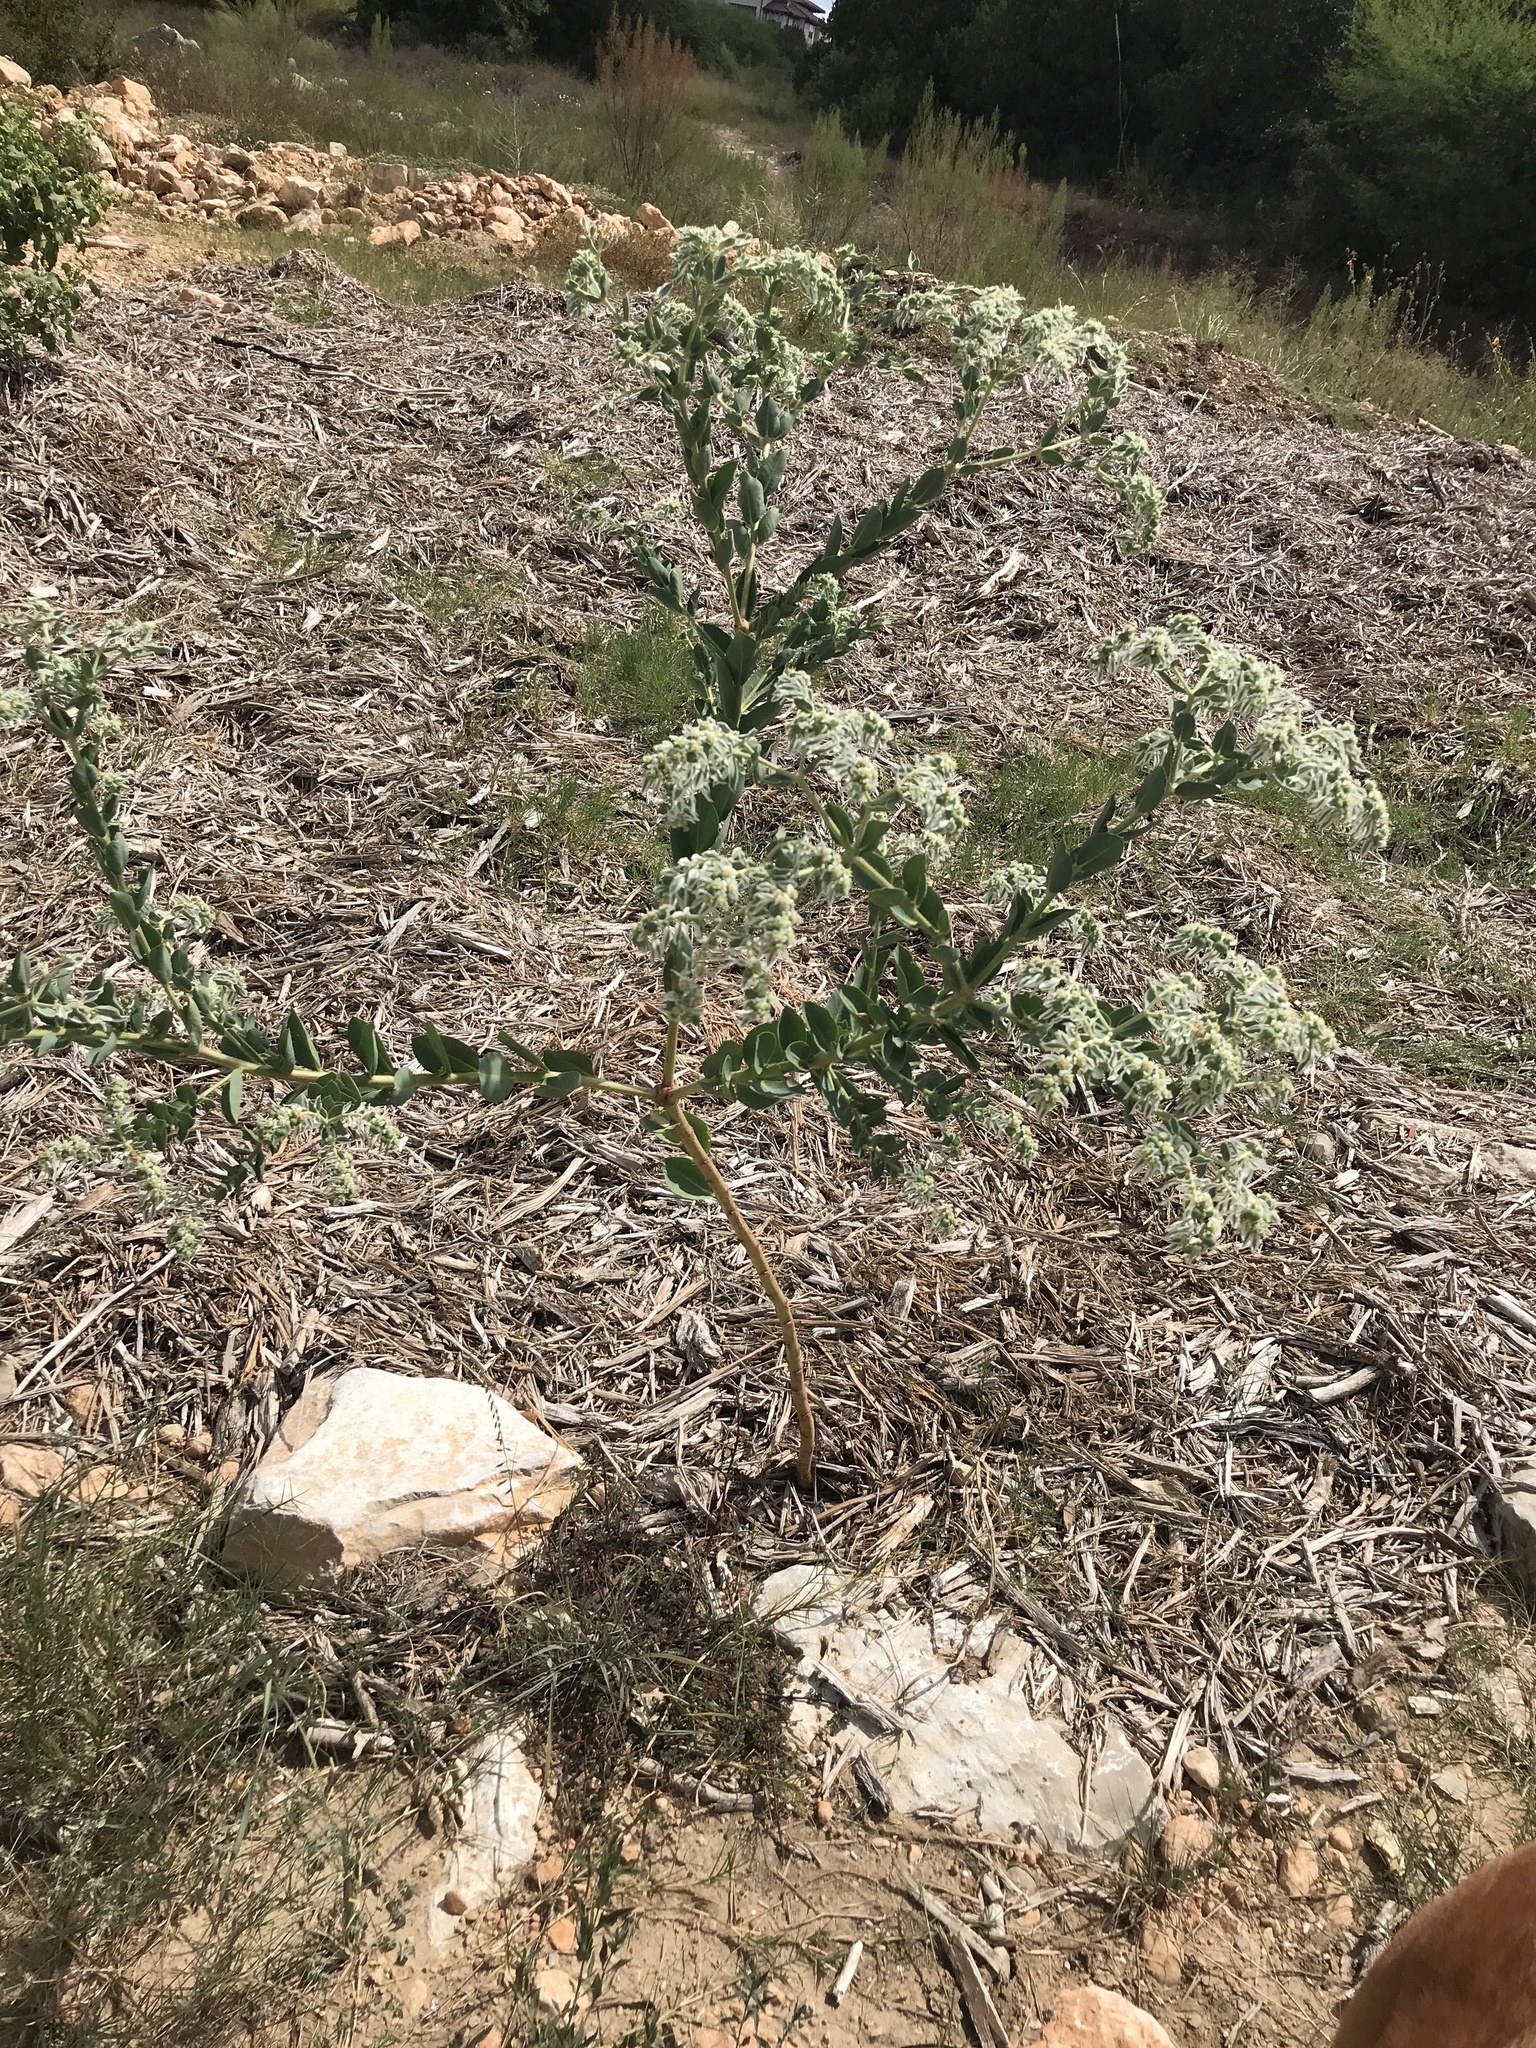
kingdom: Plantae
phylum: Tracheophyta
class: Magnoliopsida
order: Malpighiales
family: Euphorbiaceae
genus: Euphorbia
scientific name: Euphorbia marginata
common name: Ghostweed
